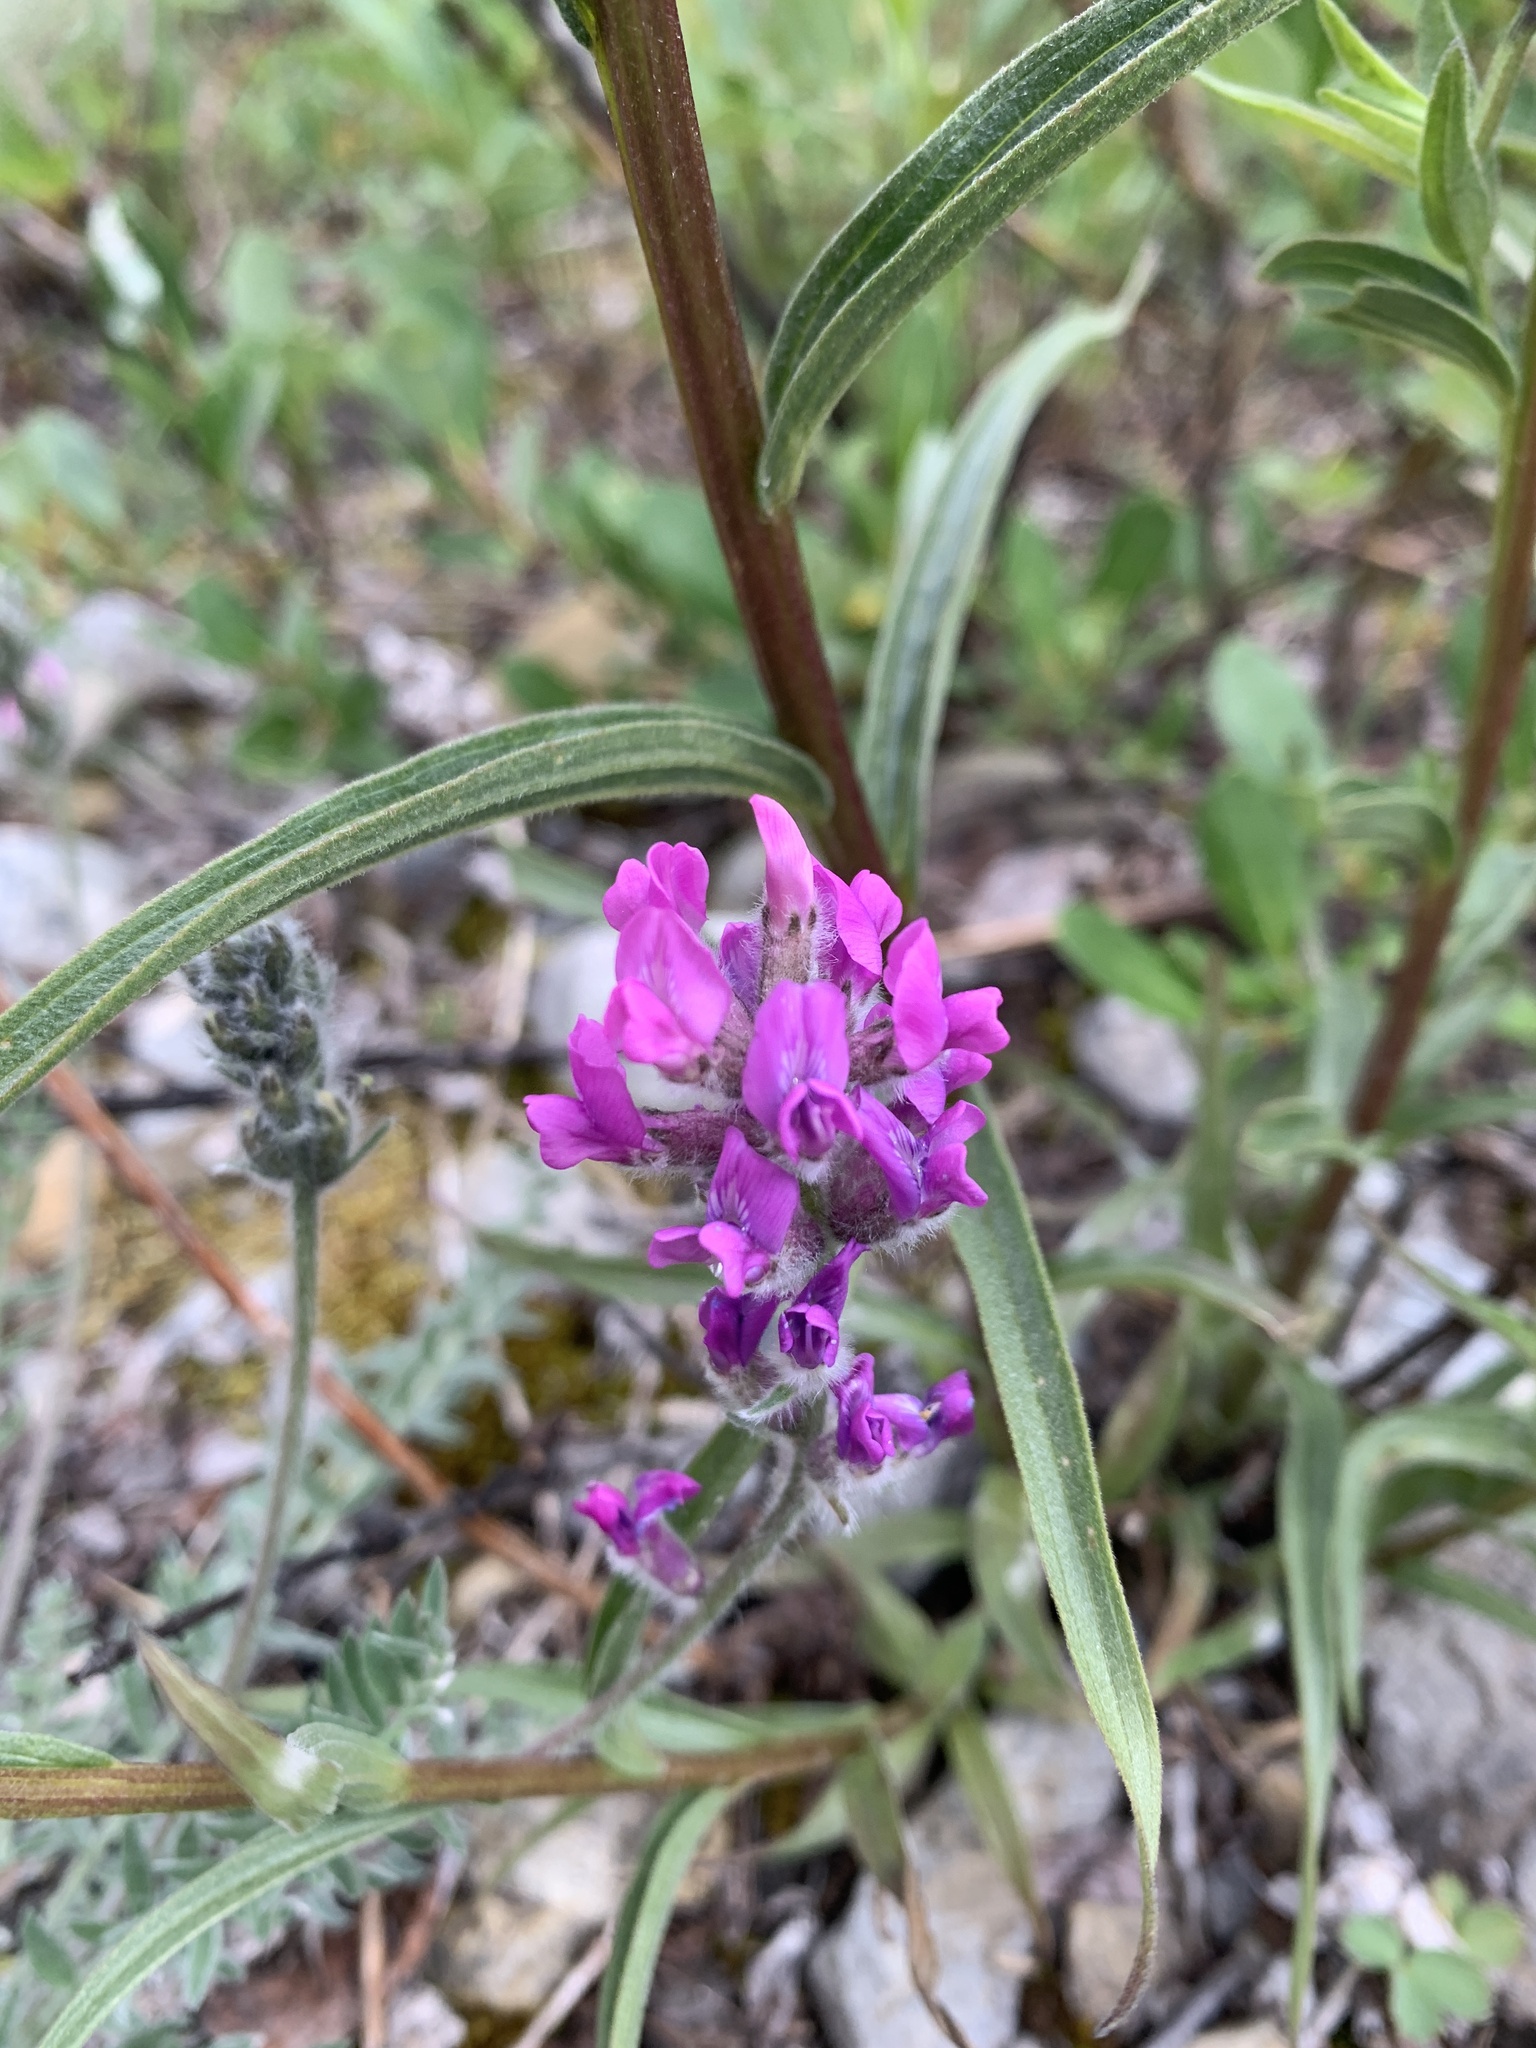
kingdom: Plantae
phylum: Tracheophyta
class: Magnoliopsida
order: Fabales
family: Fabaceae
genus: Oxytropis
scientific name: Oxytropis splendens
